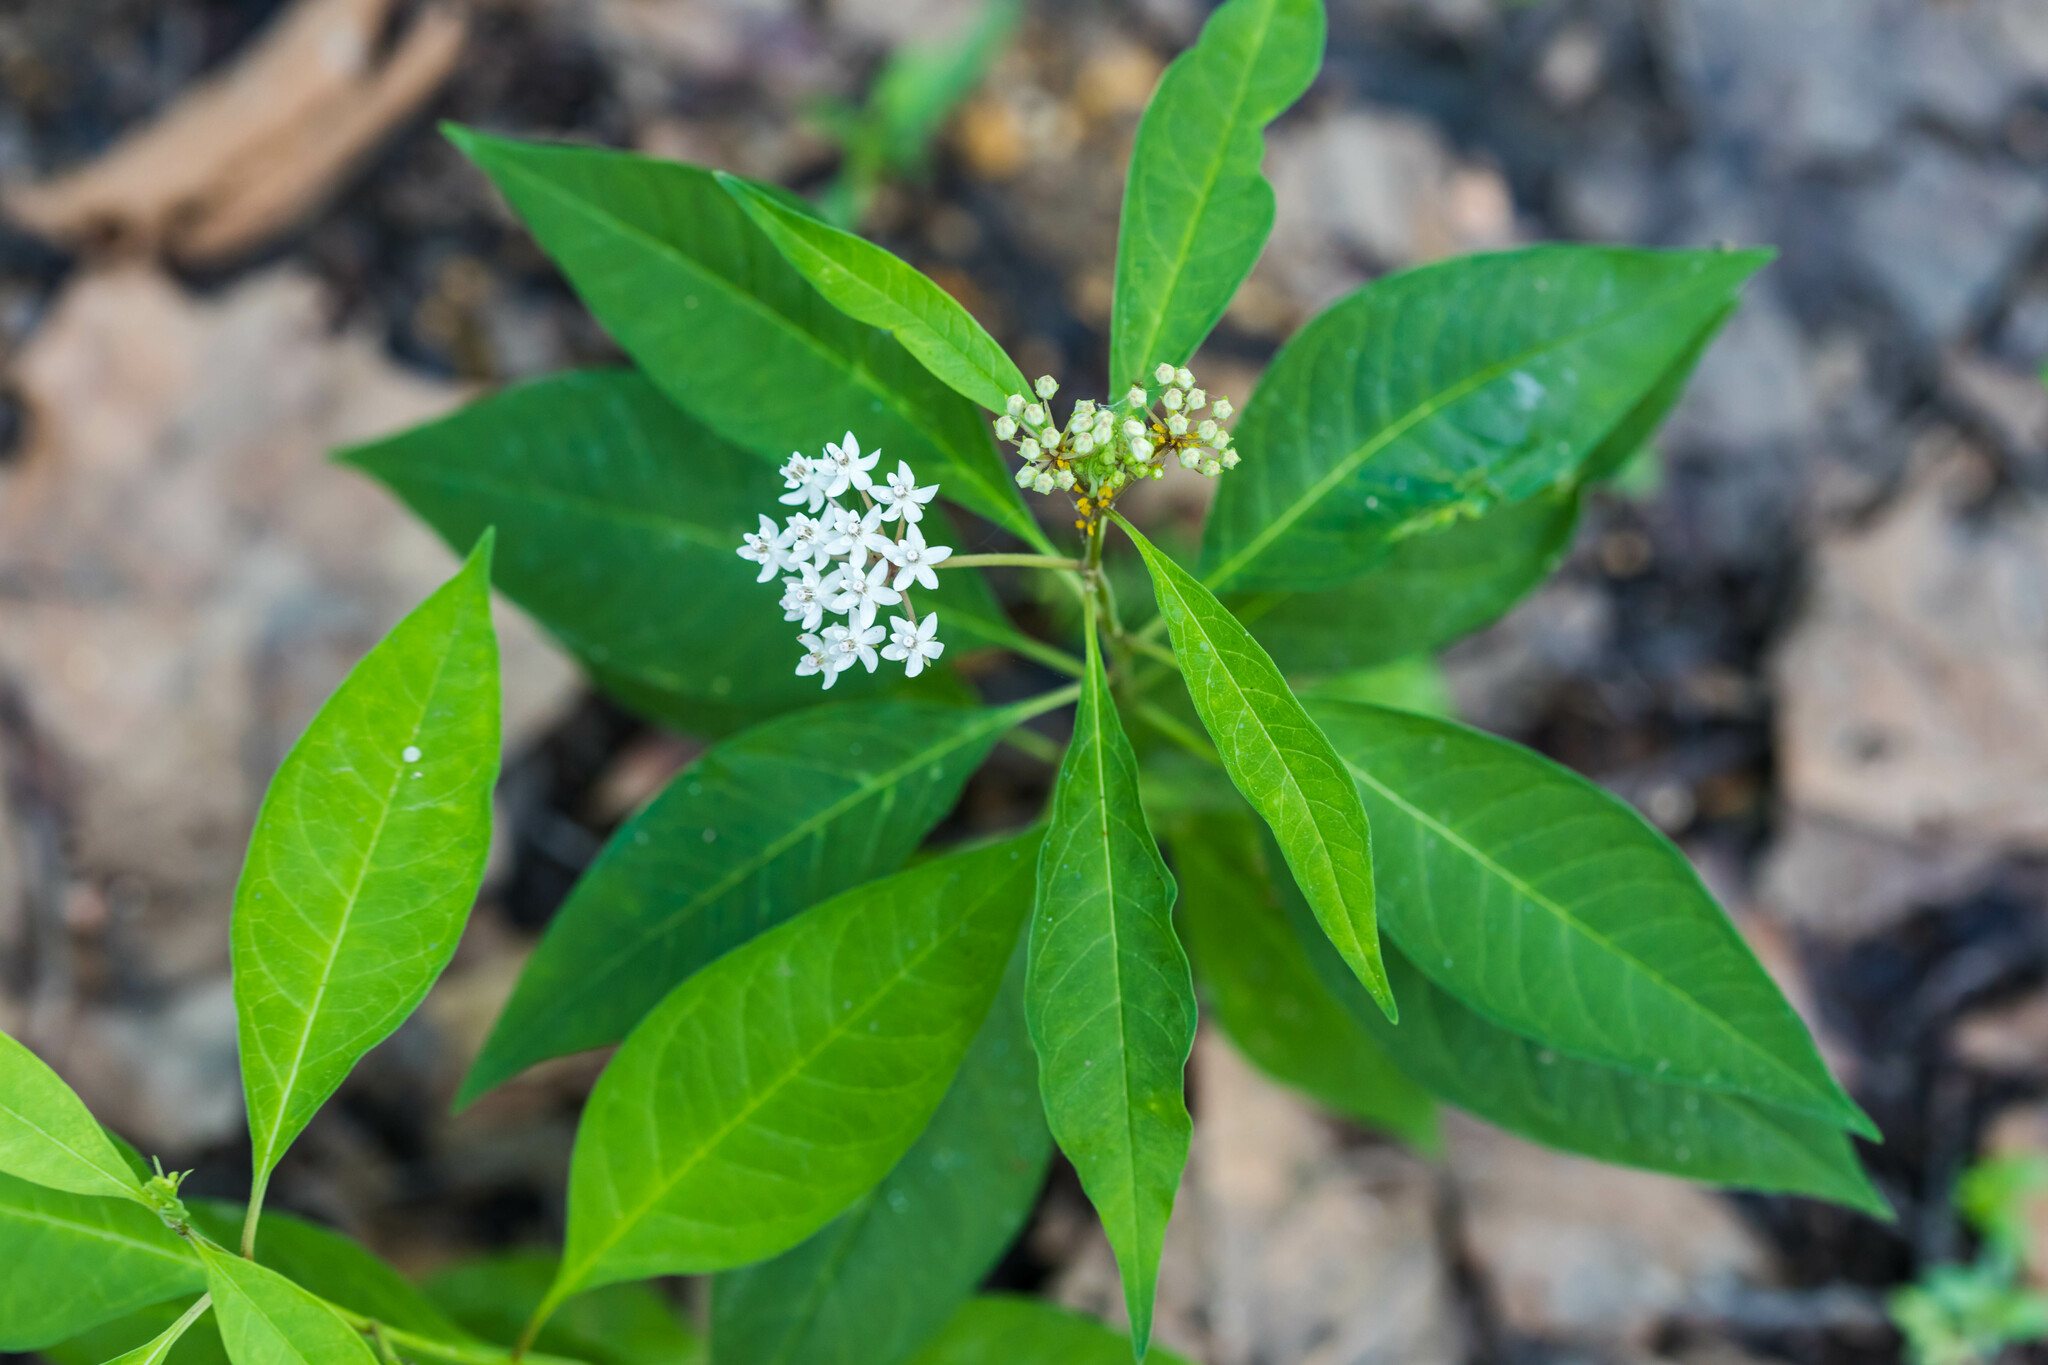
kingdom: Plantae
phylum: Tracheophyta
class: Magnoliopsida
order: Gentianales
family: Apocynaceae
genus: Asclepias
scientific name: Asclepias perennis
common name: Smooth-seed milkweed
